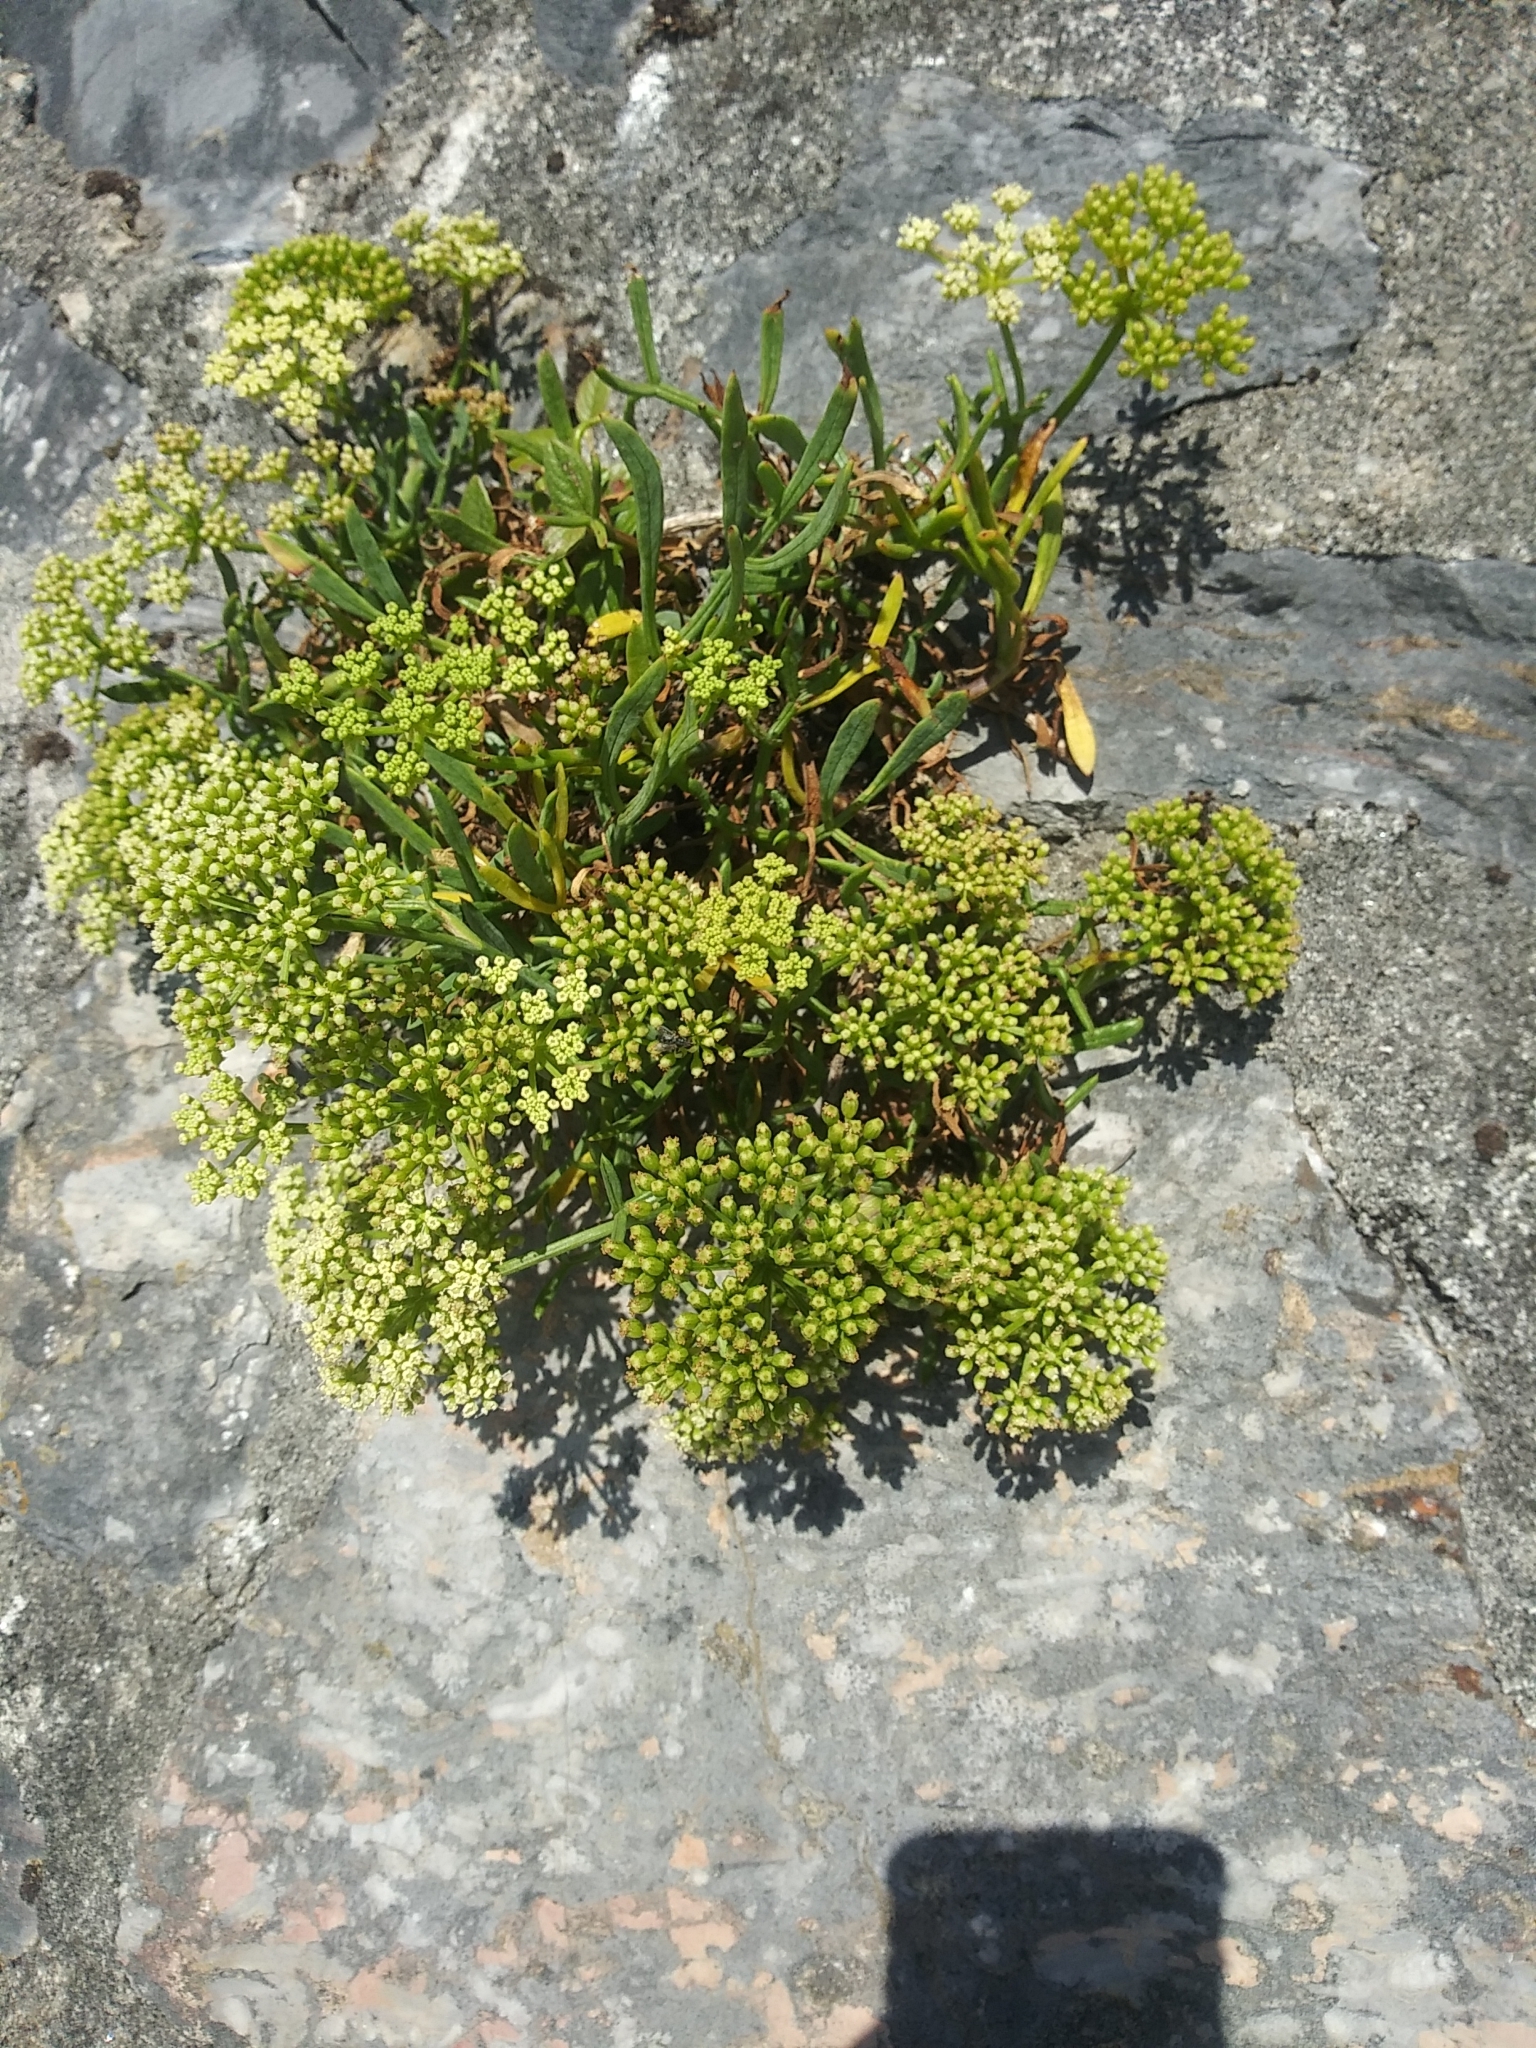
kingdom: Plantae
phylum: Tracheophyta
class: Magnoliopsida
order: Apiales
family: Apiaceae
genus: Crithmum
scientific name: Crithmum maritimum
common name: Rock samphire
